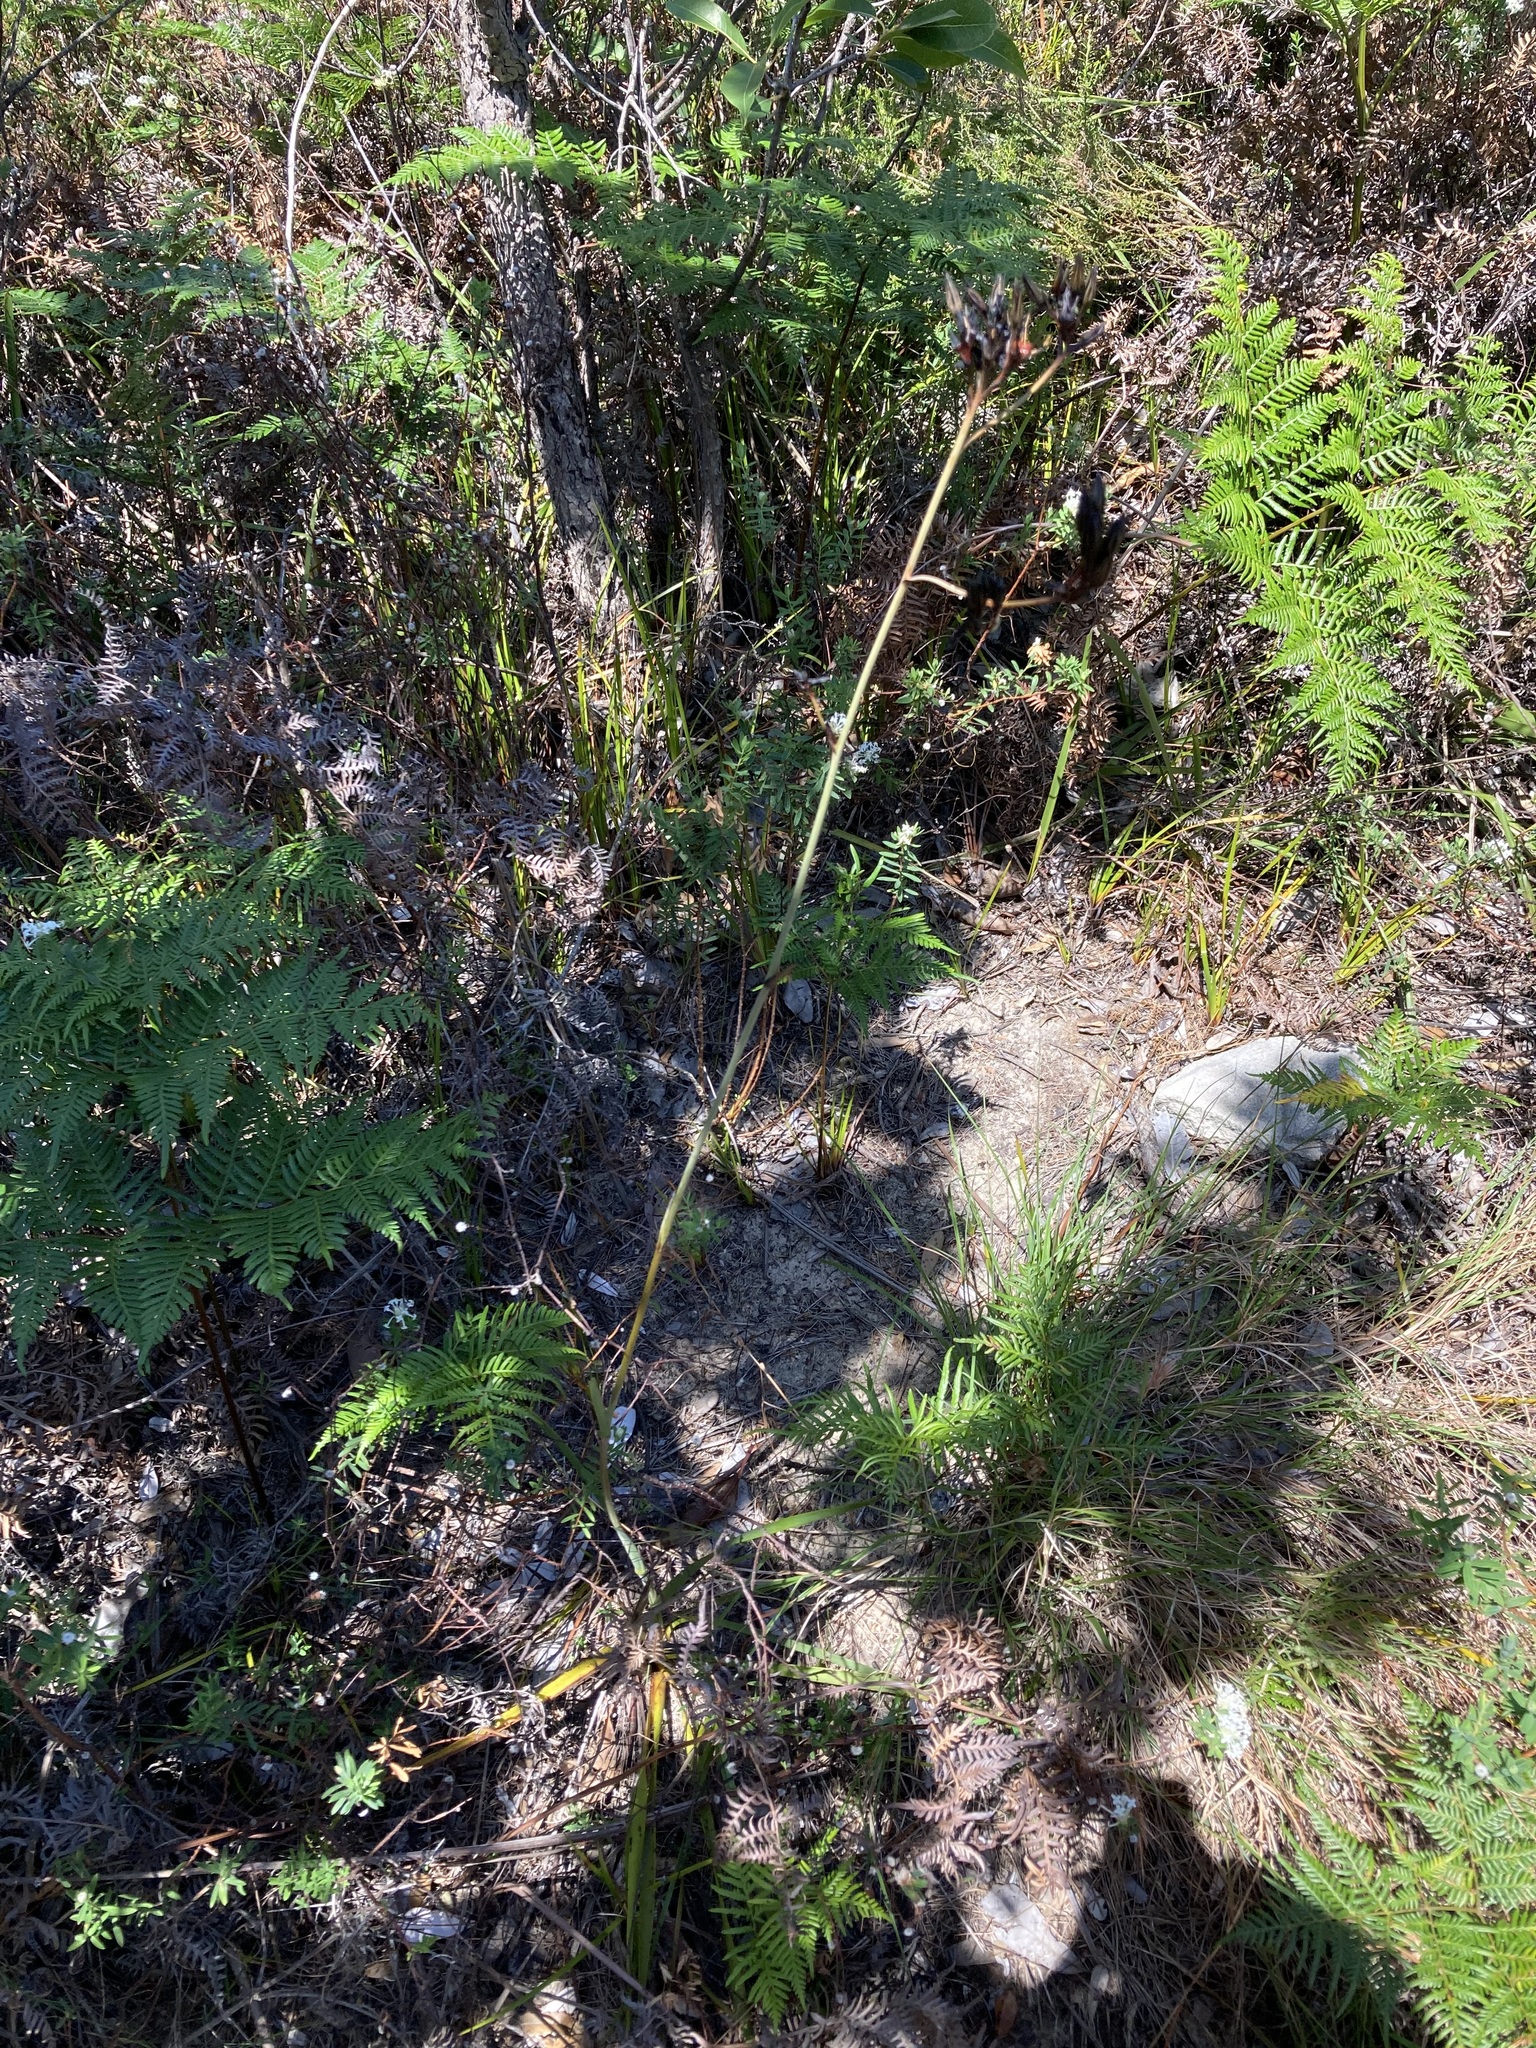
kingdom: Plantae
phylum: Tracheophyta
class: Liliopsida
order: Commelinales
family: Haemodoraceae
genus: Haemodorum
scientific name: Haemodorum planifolium
